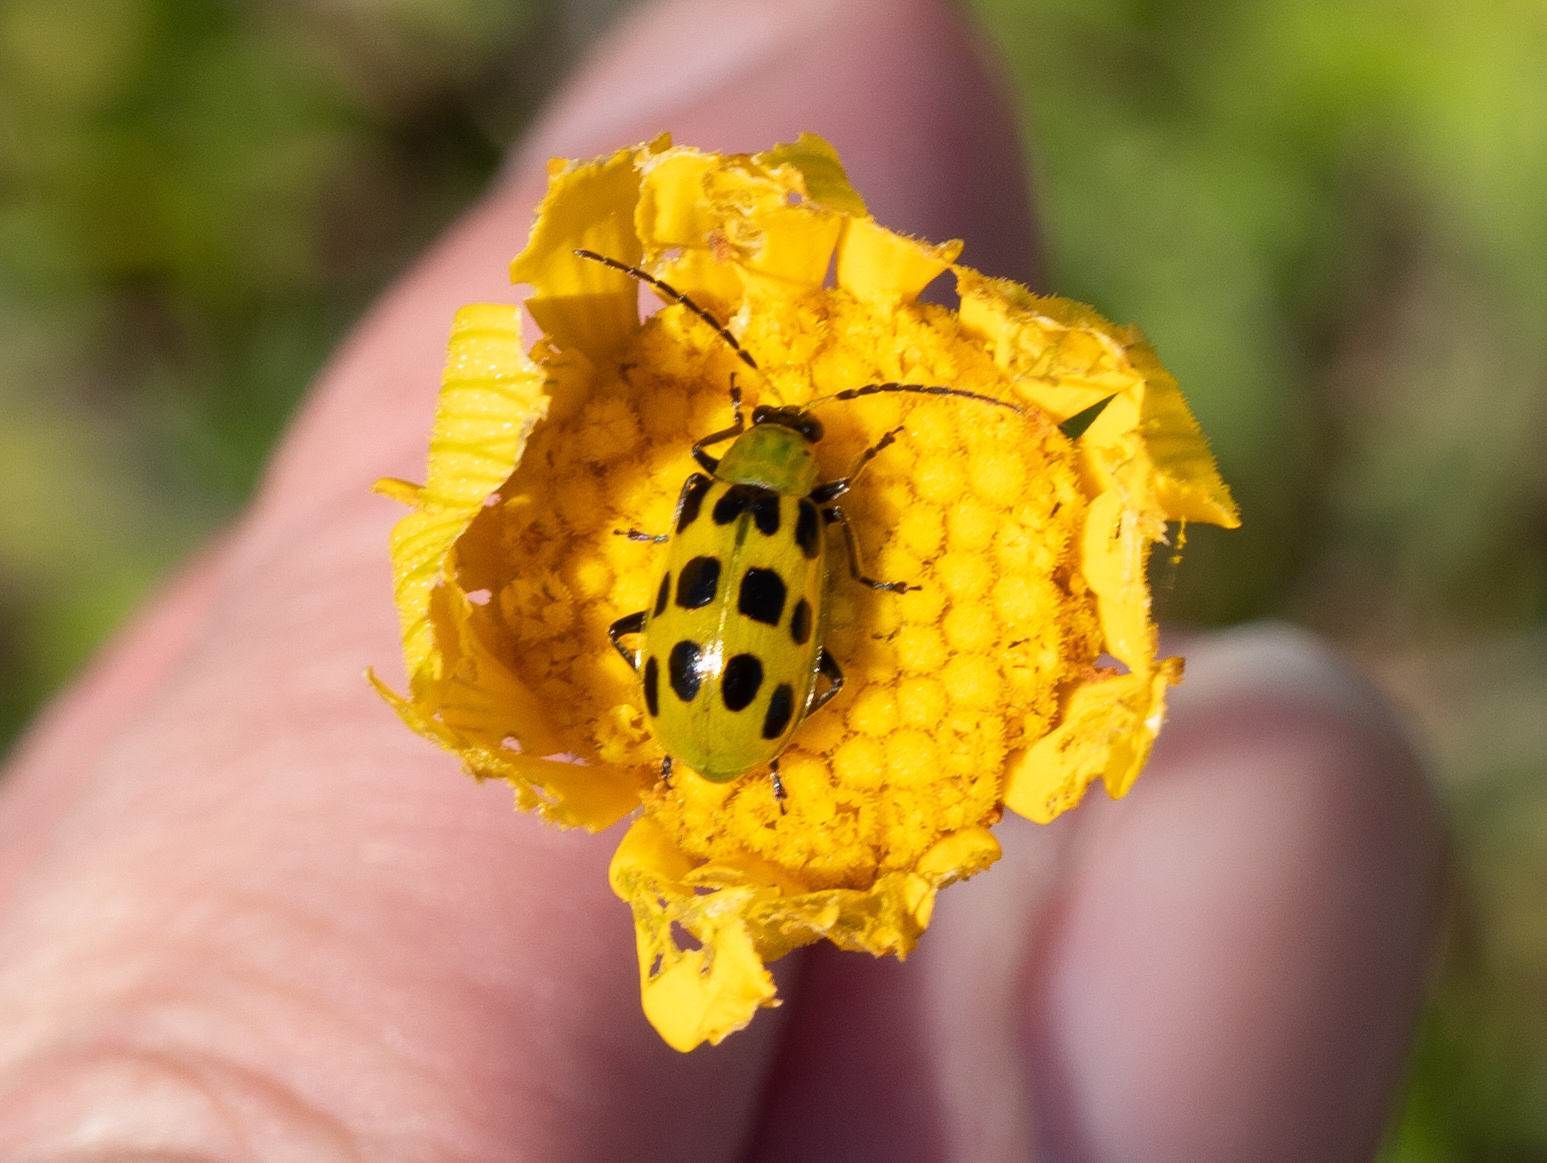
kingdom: Animalia
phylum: Arthropoda
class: Insecta
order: Coleoptera
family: Chrysomelidae
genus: Diabrotica
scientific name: Diabrotica undecimpunctata
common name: Spotted cucumber beetle
